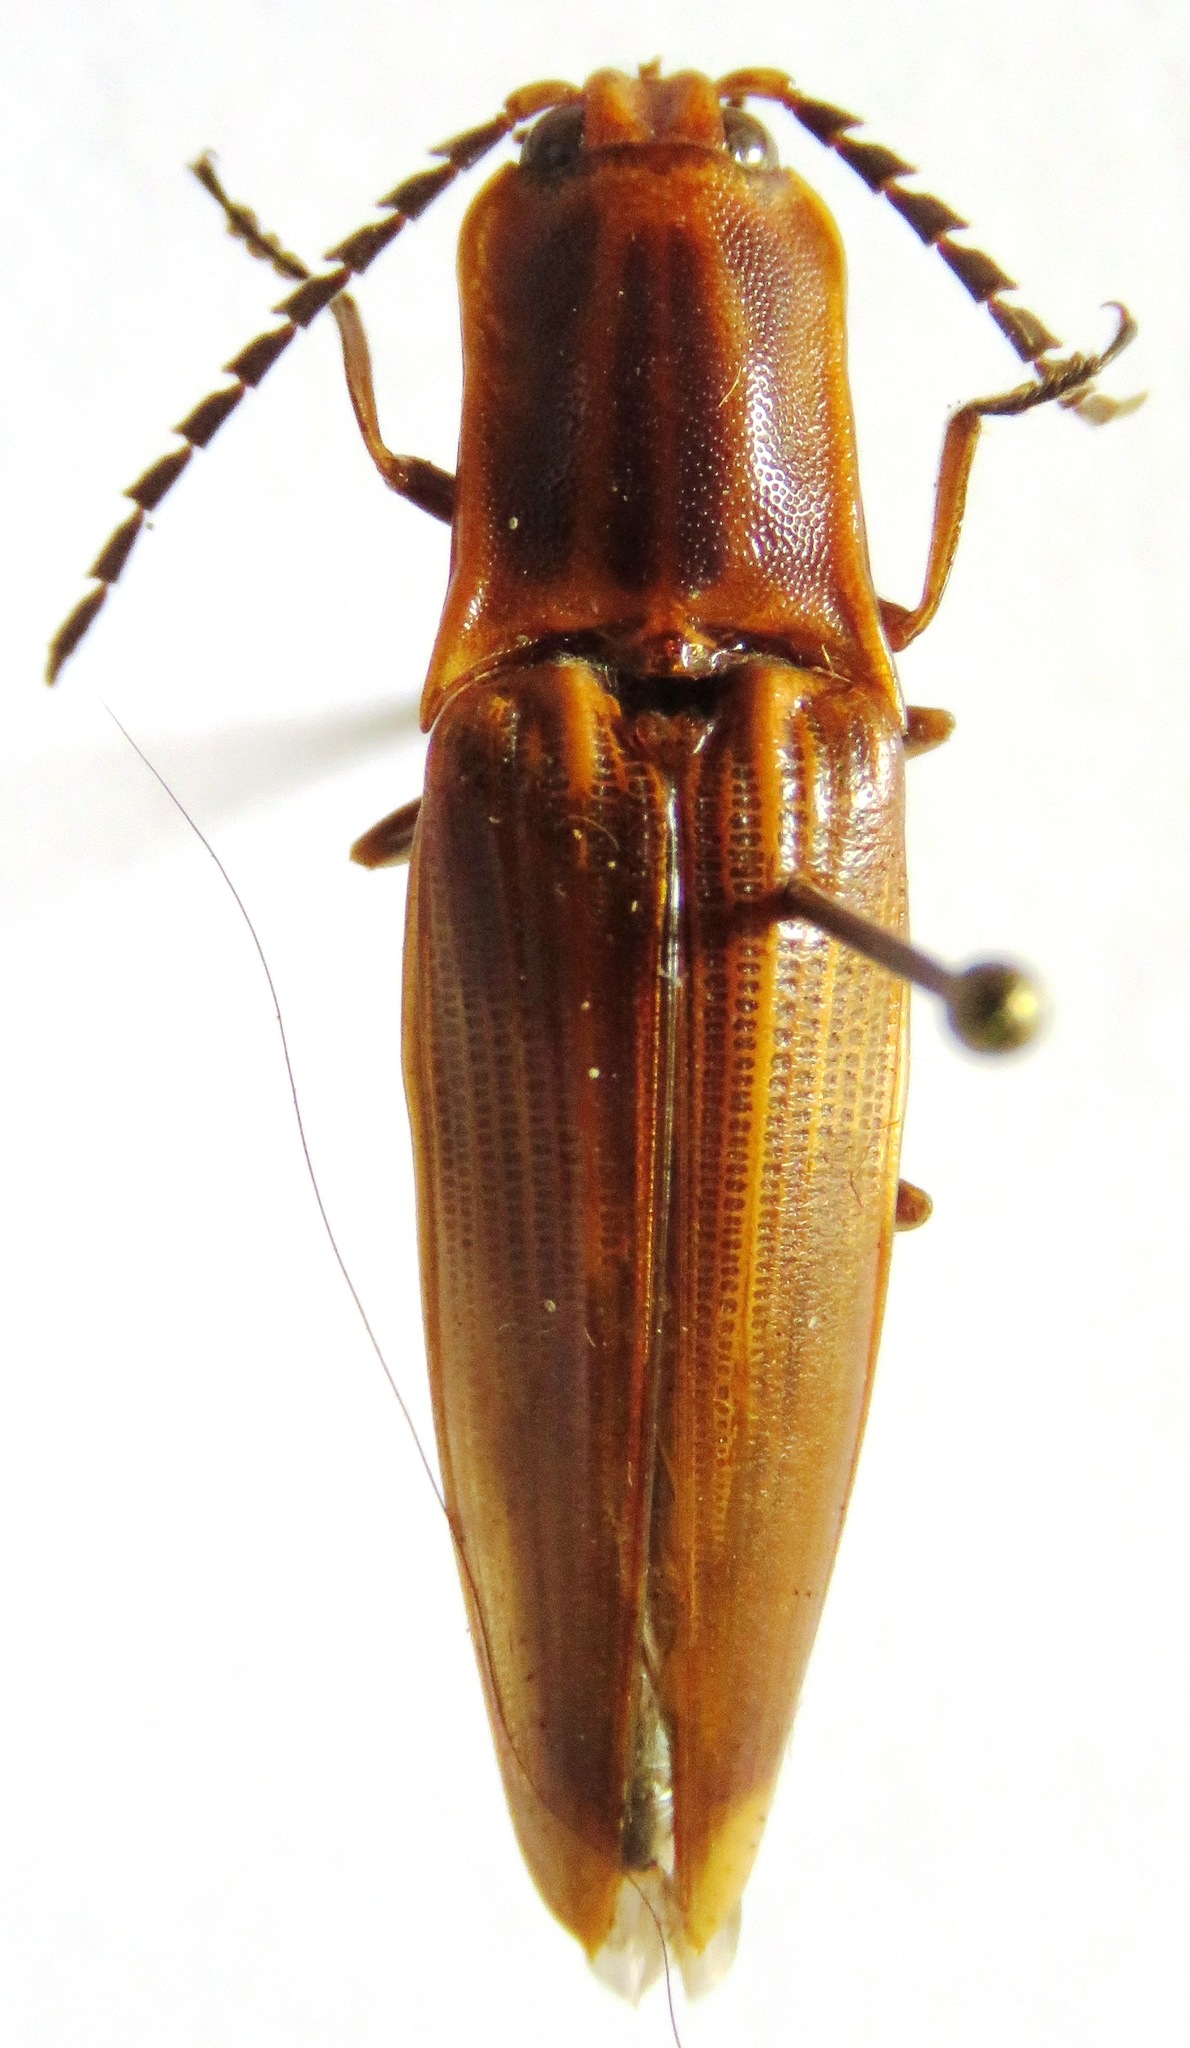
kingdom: Animalia
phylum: Arthropoda
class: Insecta
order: Coleoptera
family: Elateridae
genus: Semiotus
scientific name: Semiotus ligneus
